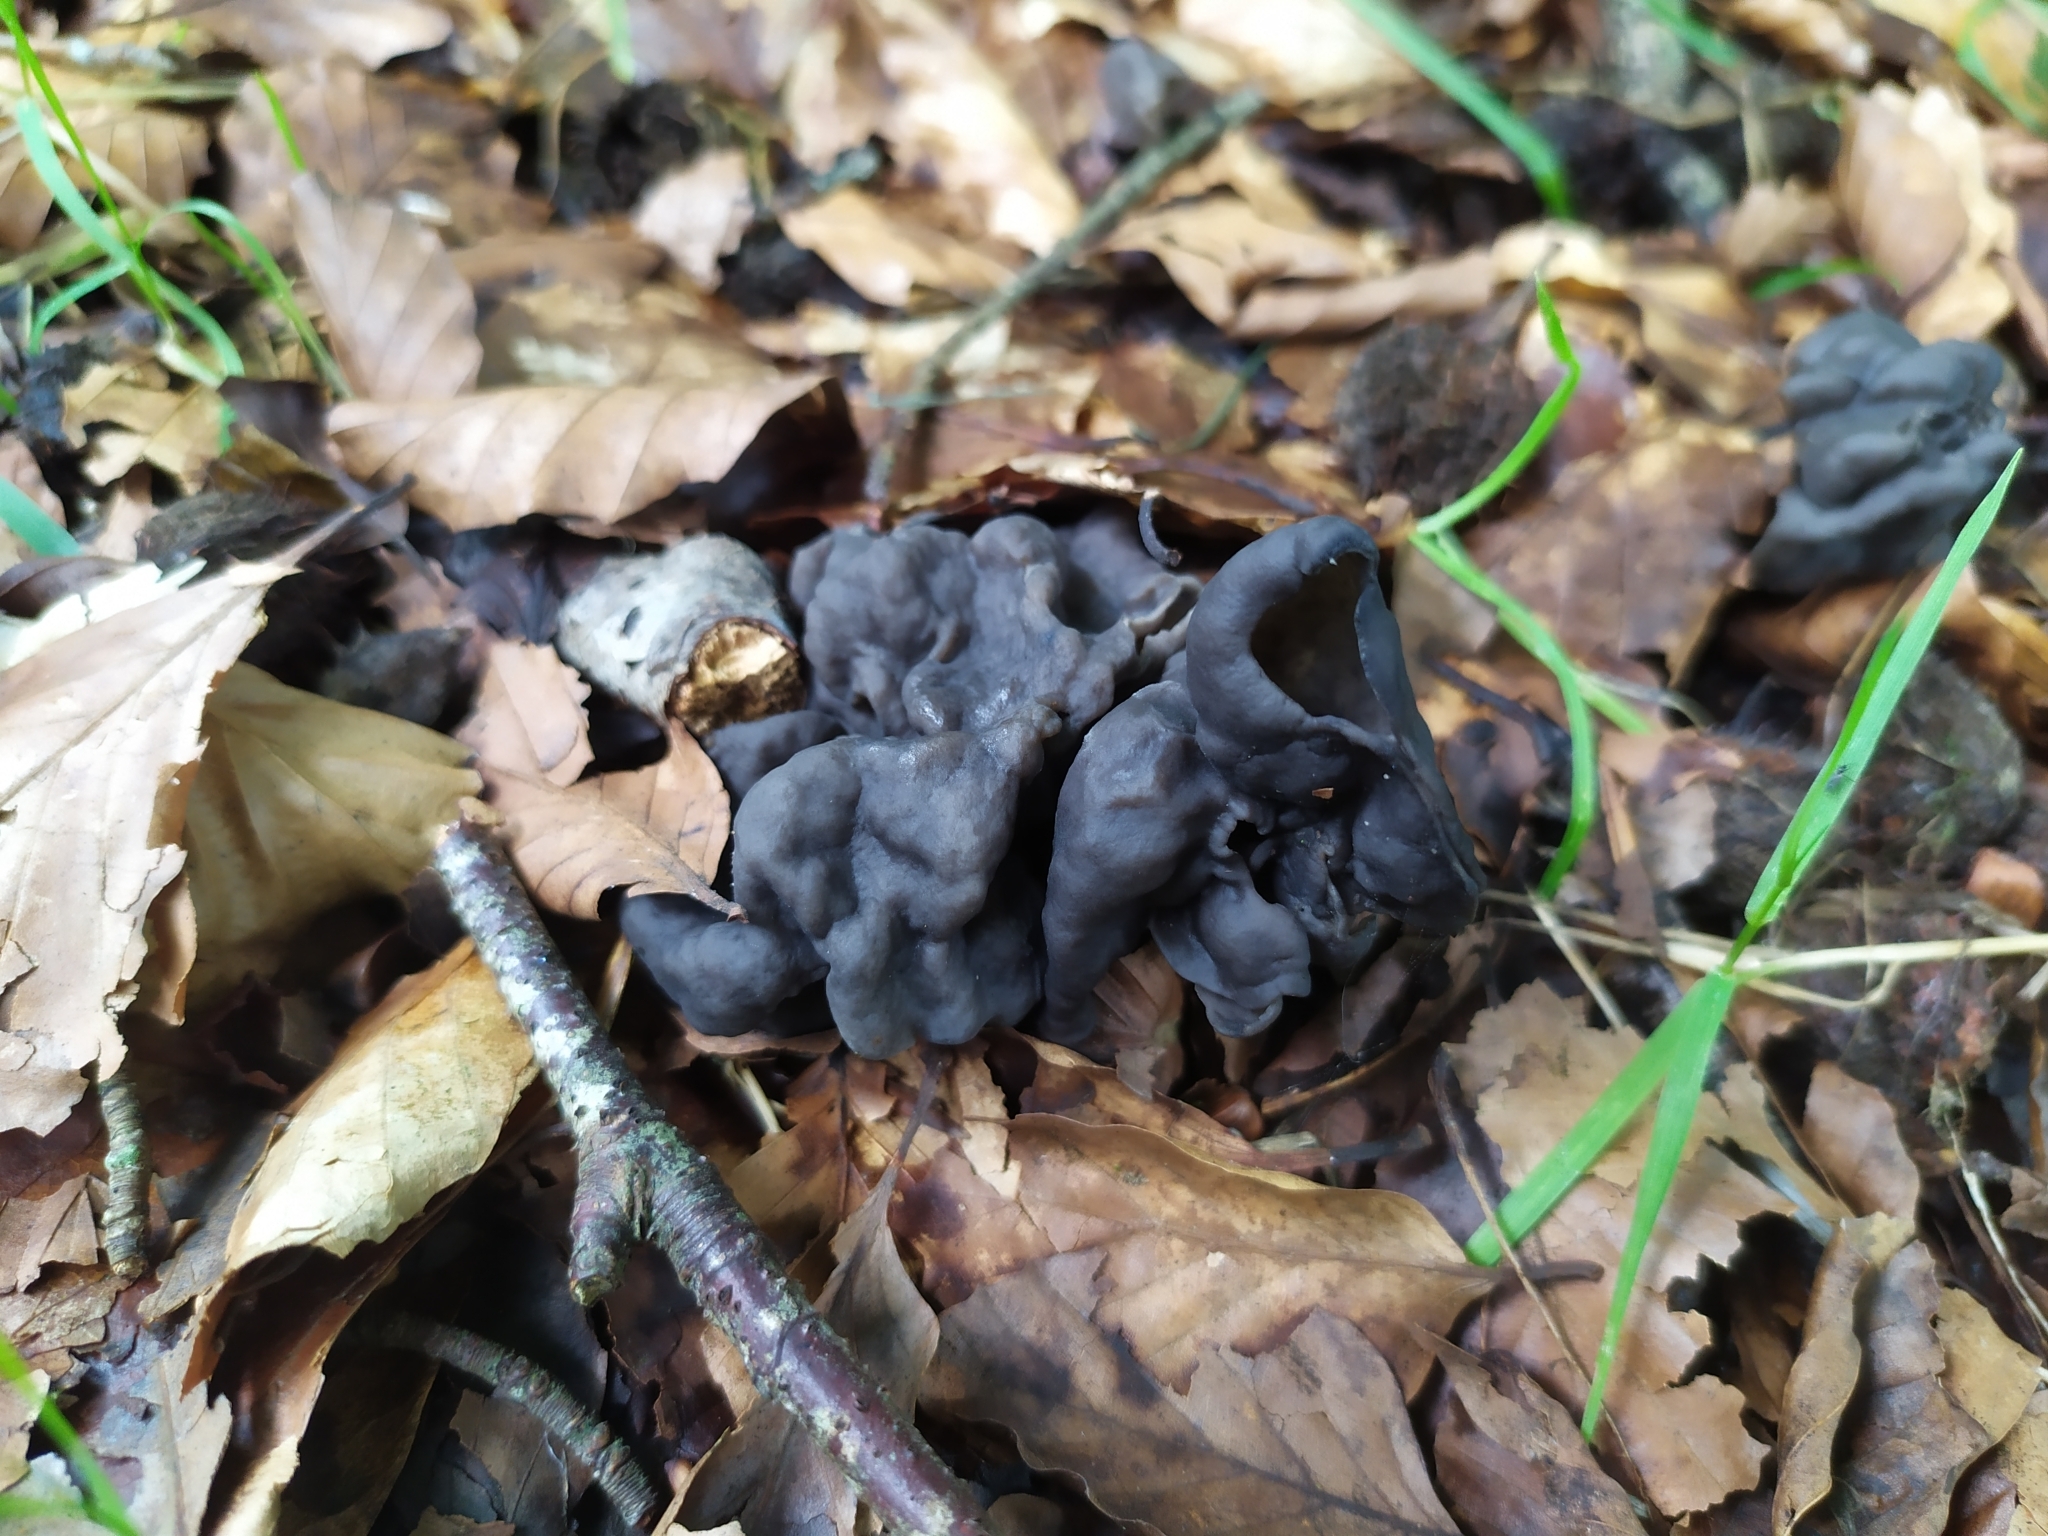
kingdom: Fungi
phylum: Ascomycota
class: Pezizomycetes
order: Pezizales
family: Helvellaceae
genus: Helvella
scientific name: Helvella lacunosa
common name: Elfin saddle
